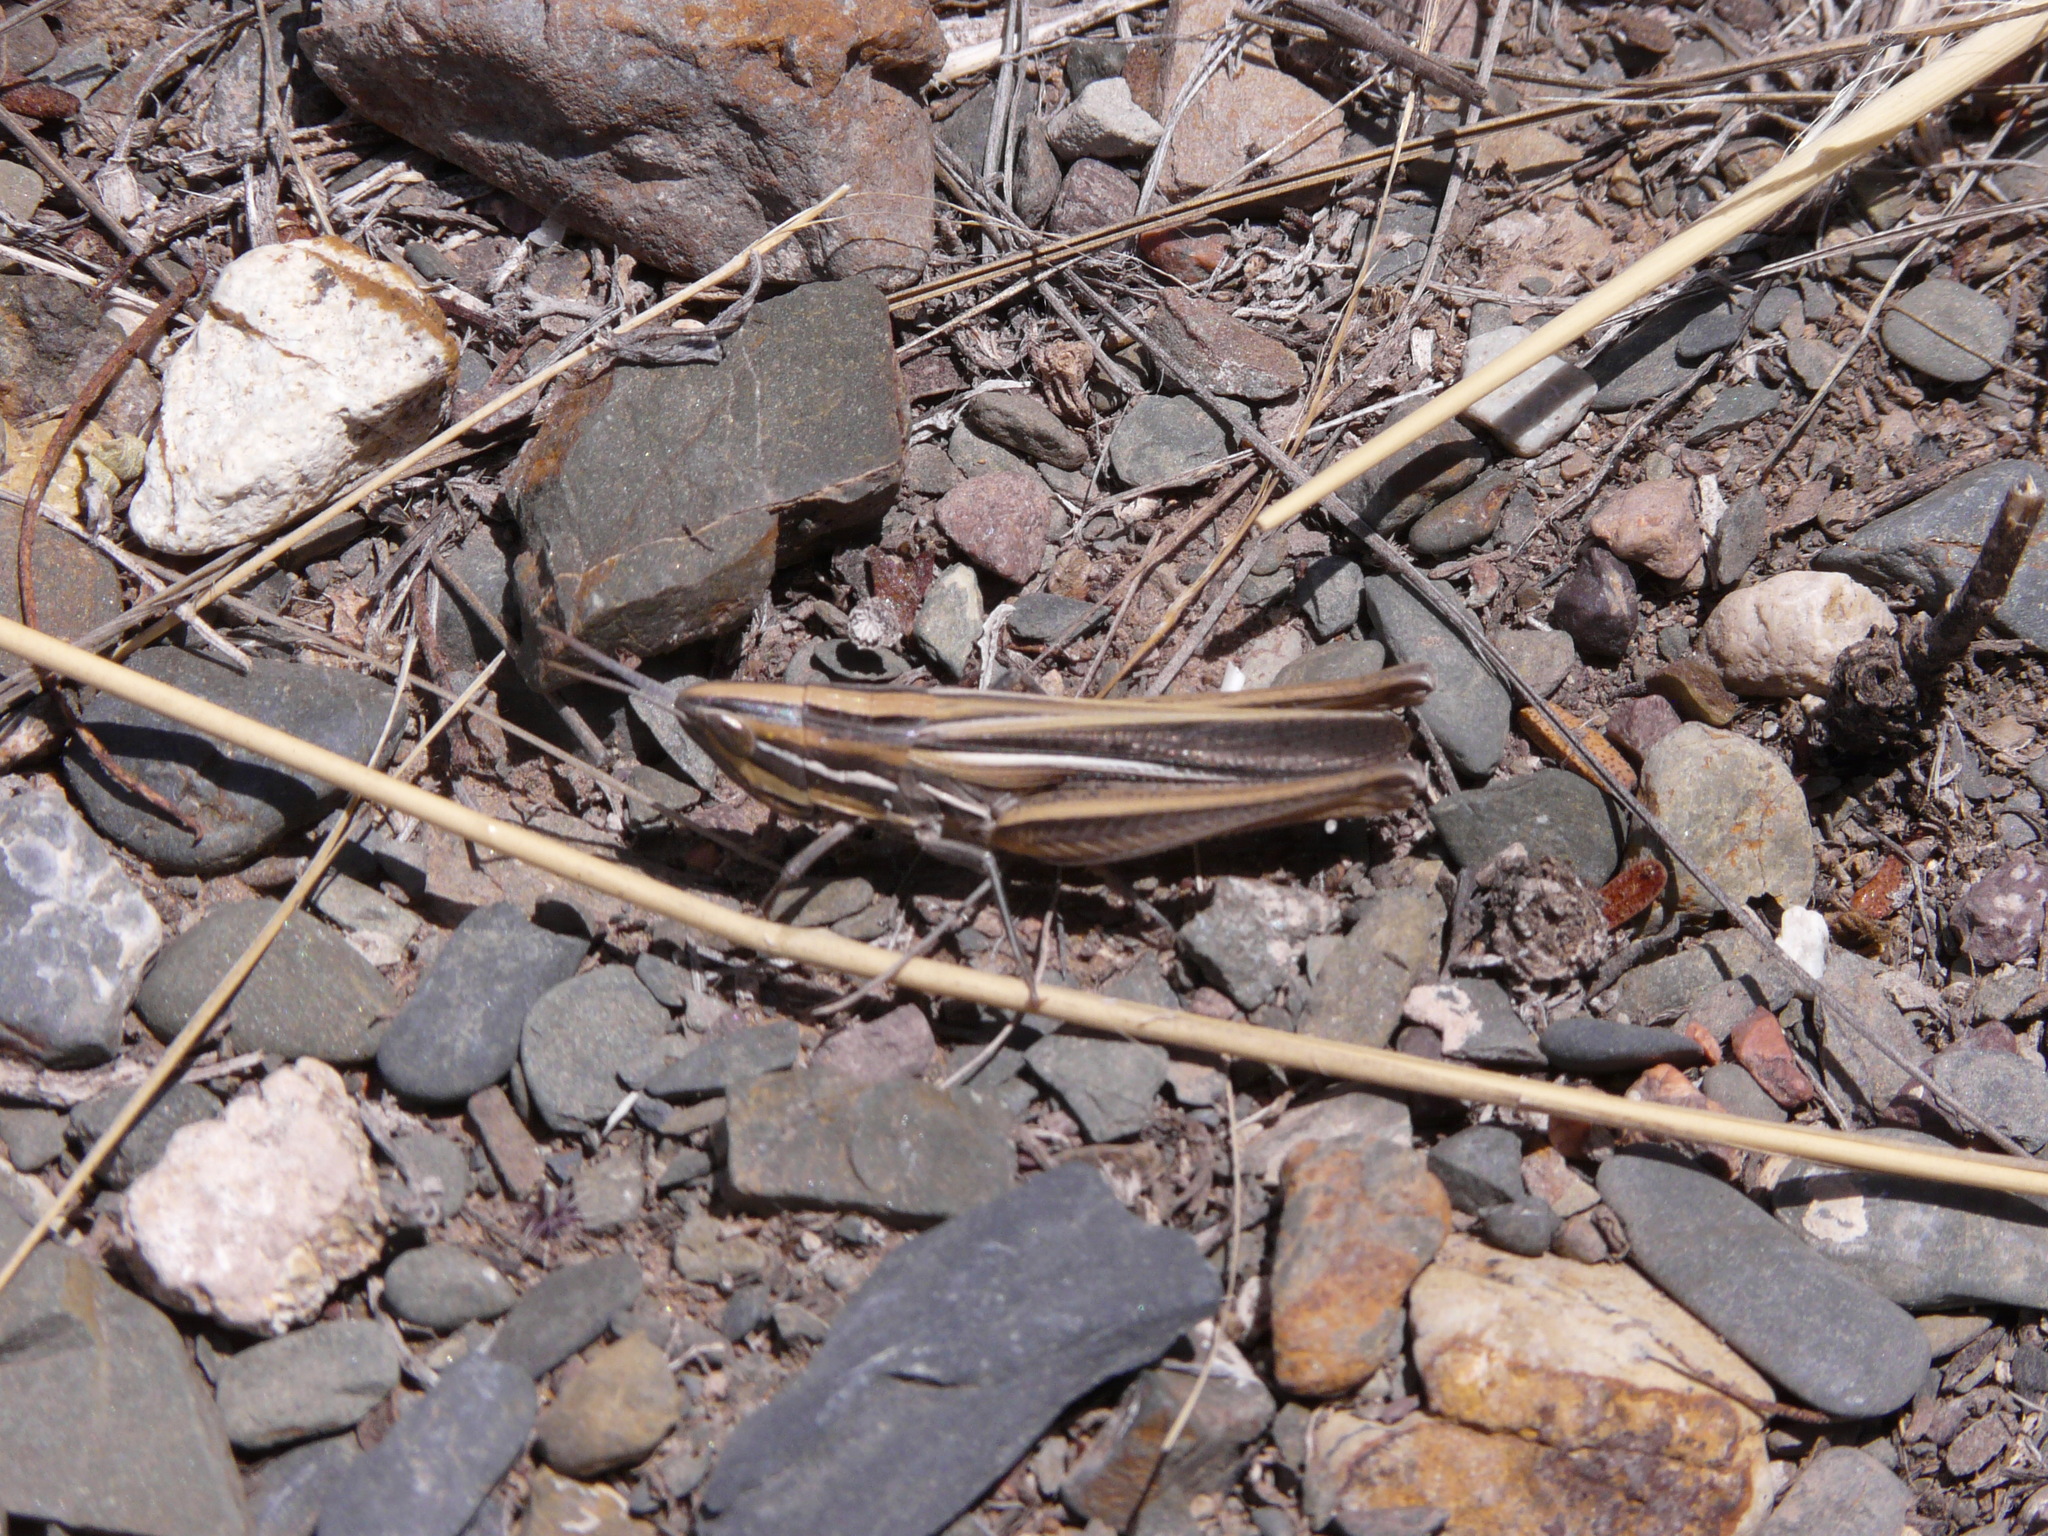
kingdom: Animalia
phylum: Arthropoda
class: Insecta
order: Orthoptera
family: Acrididae
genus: Sinipta
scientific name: Sinipta dalmani
